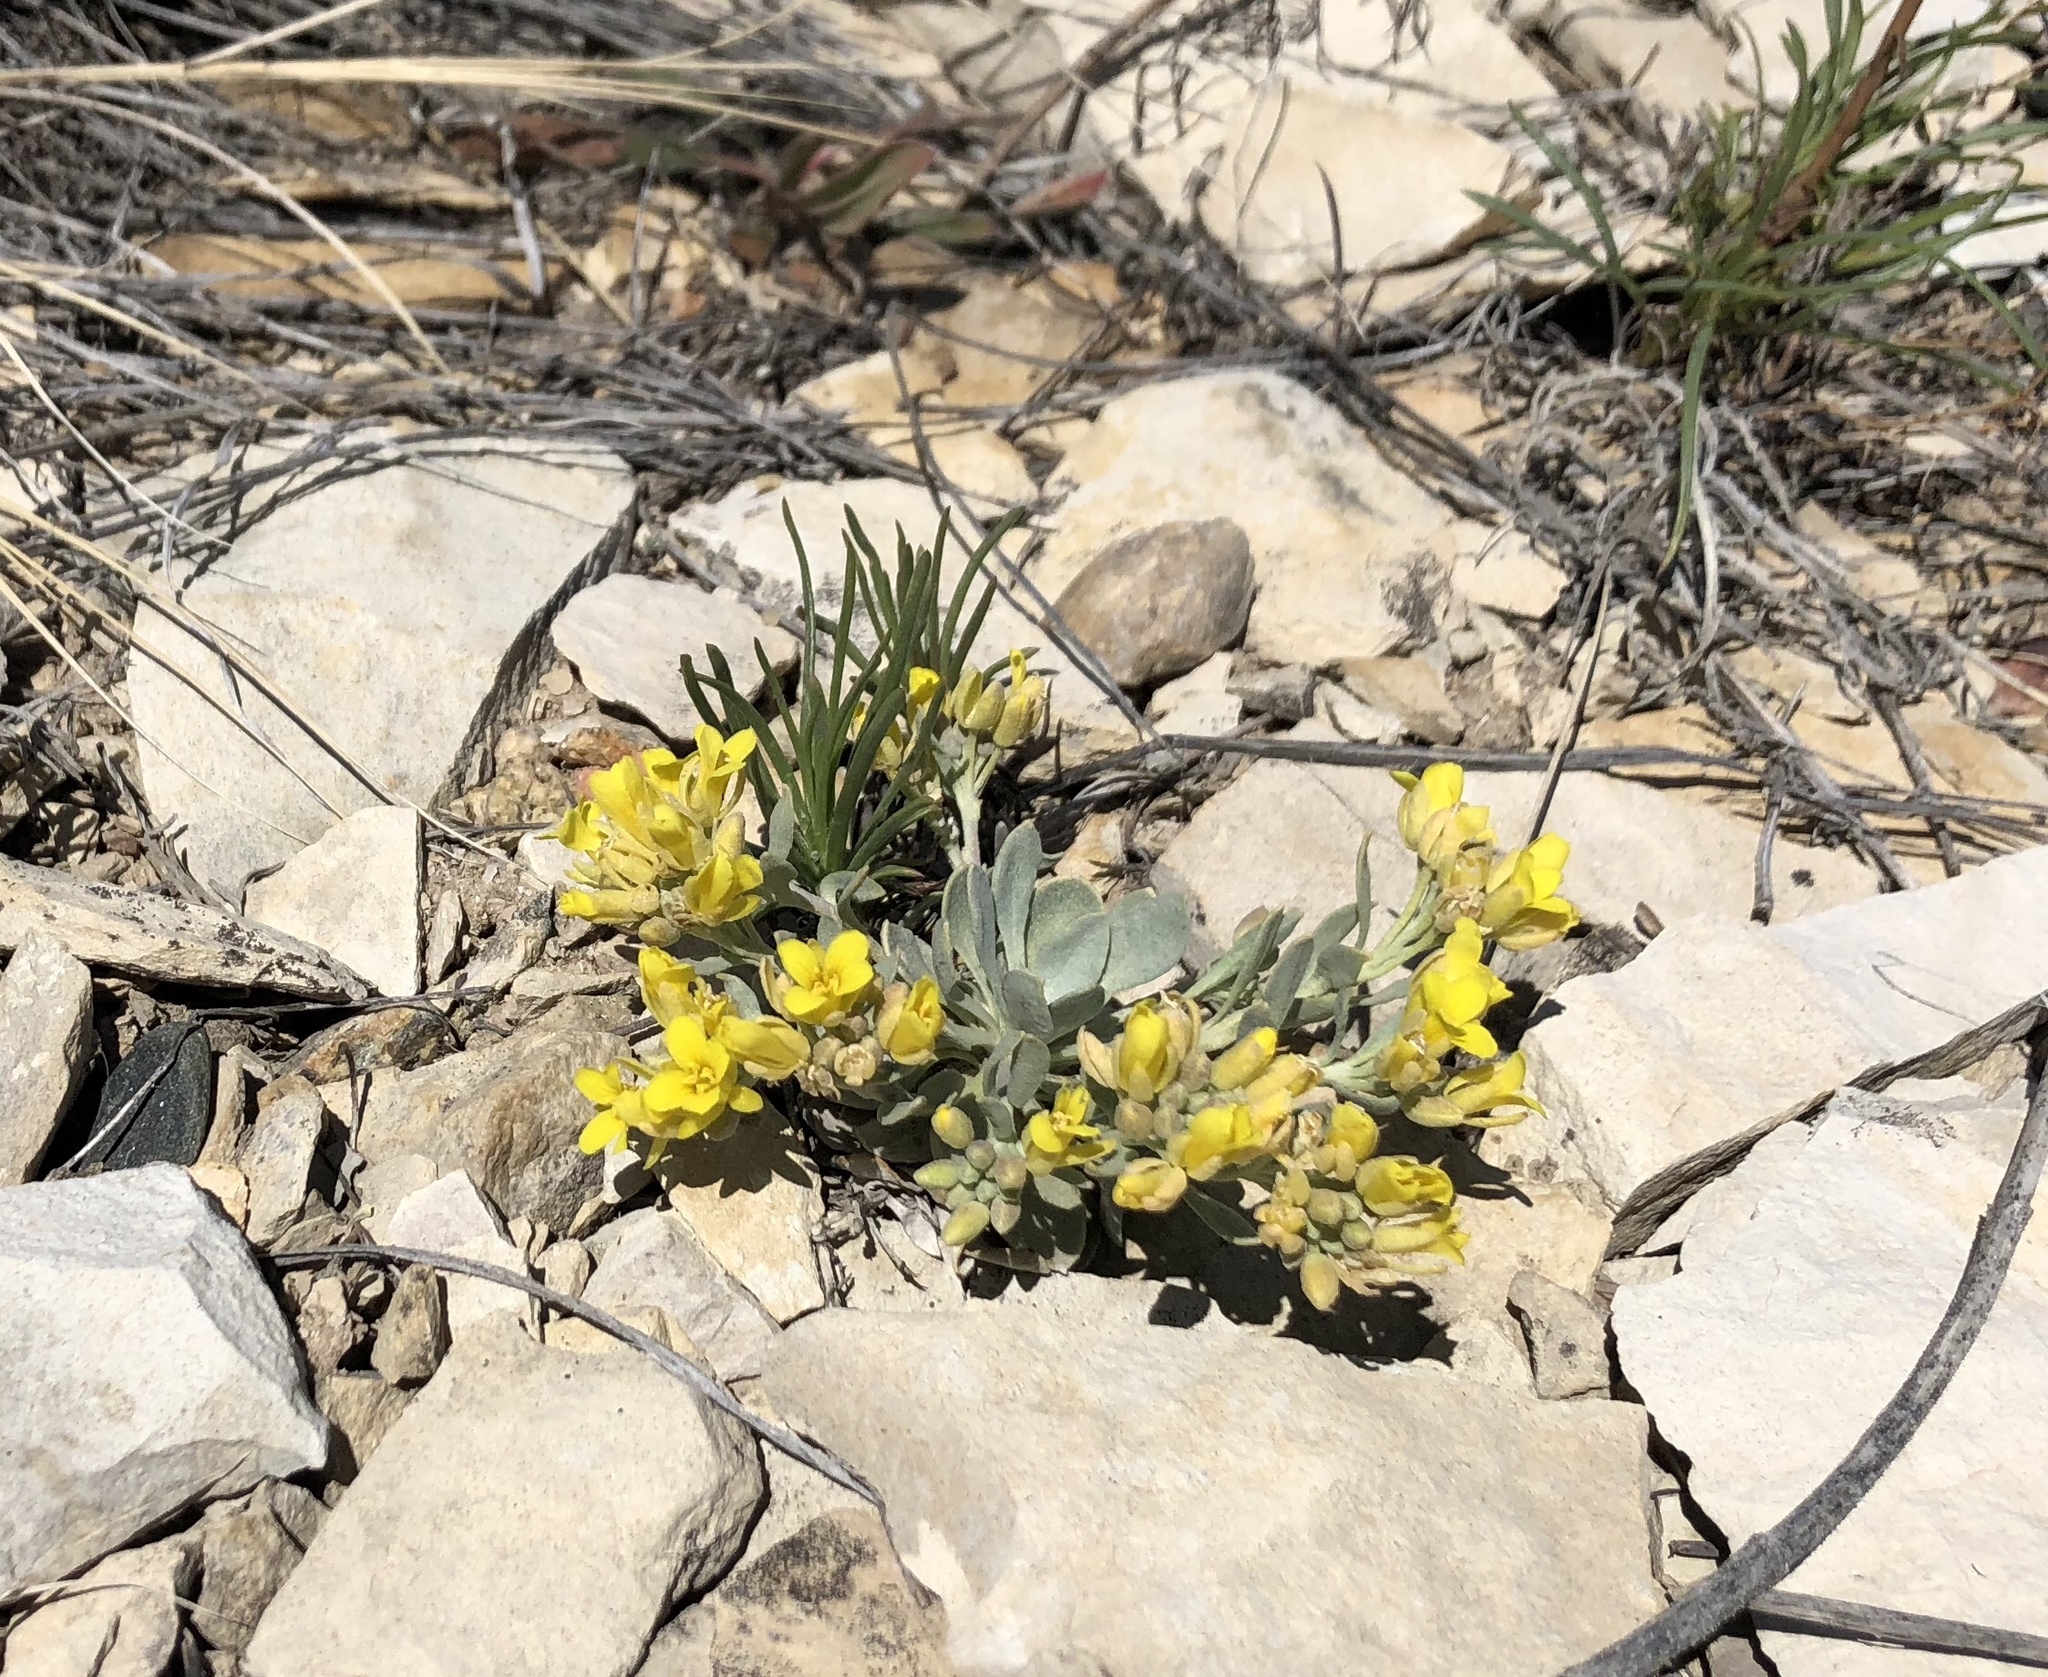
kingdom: Plantae
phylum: Tracheophyta
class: Magnoliopsida
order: Brassicales
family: Brassicaceae
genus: Physaria
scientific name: Physaria bellii
